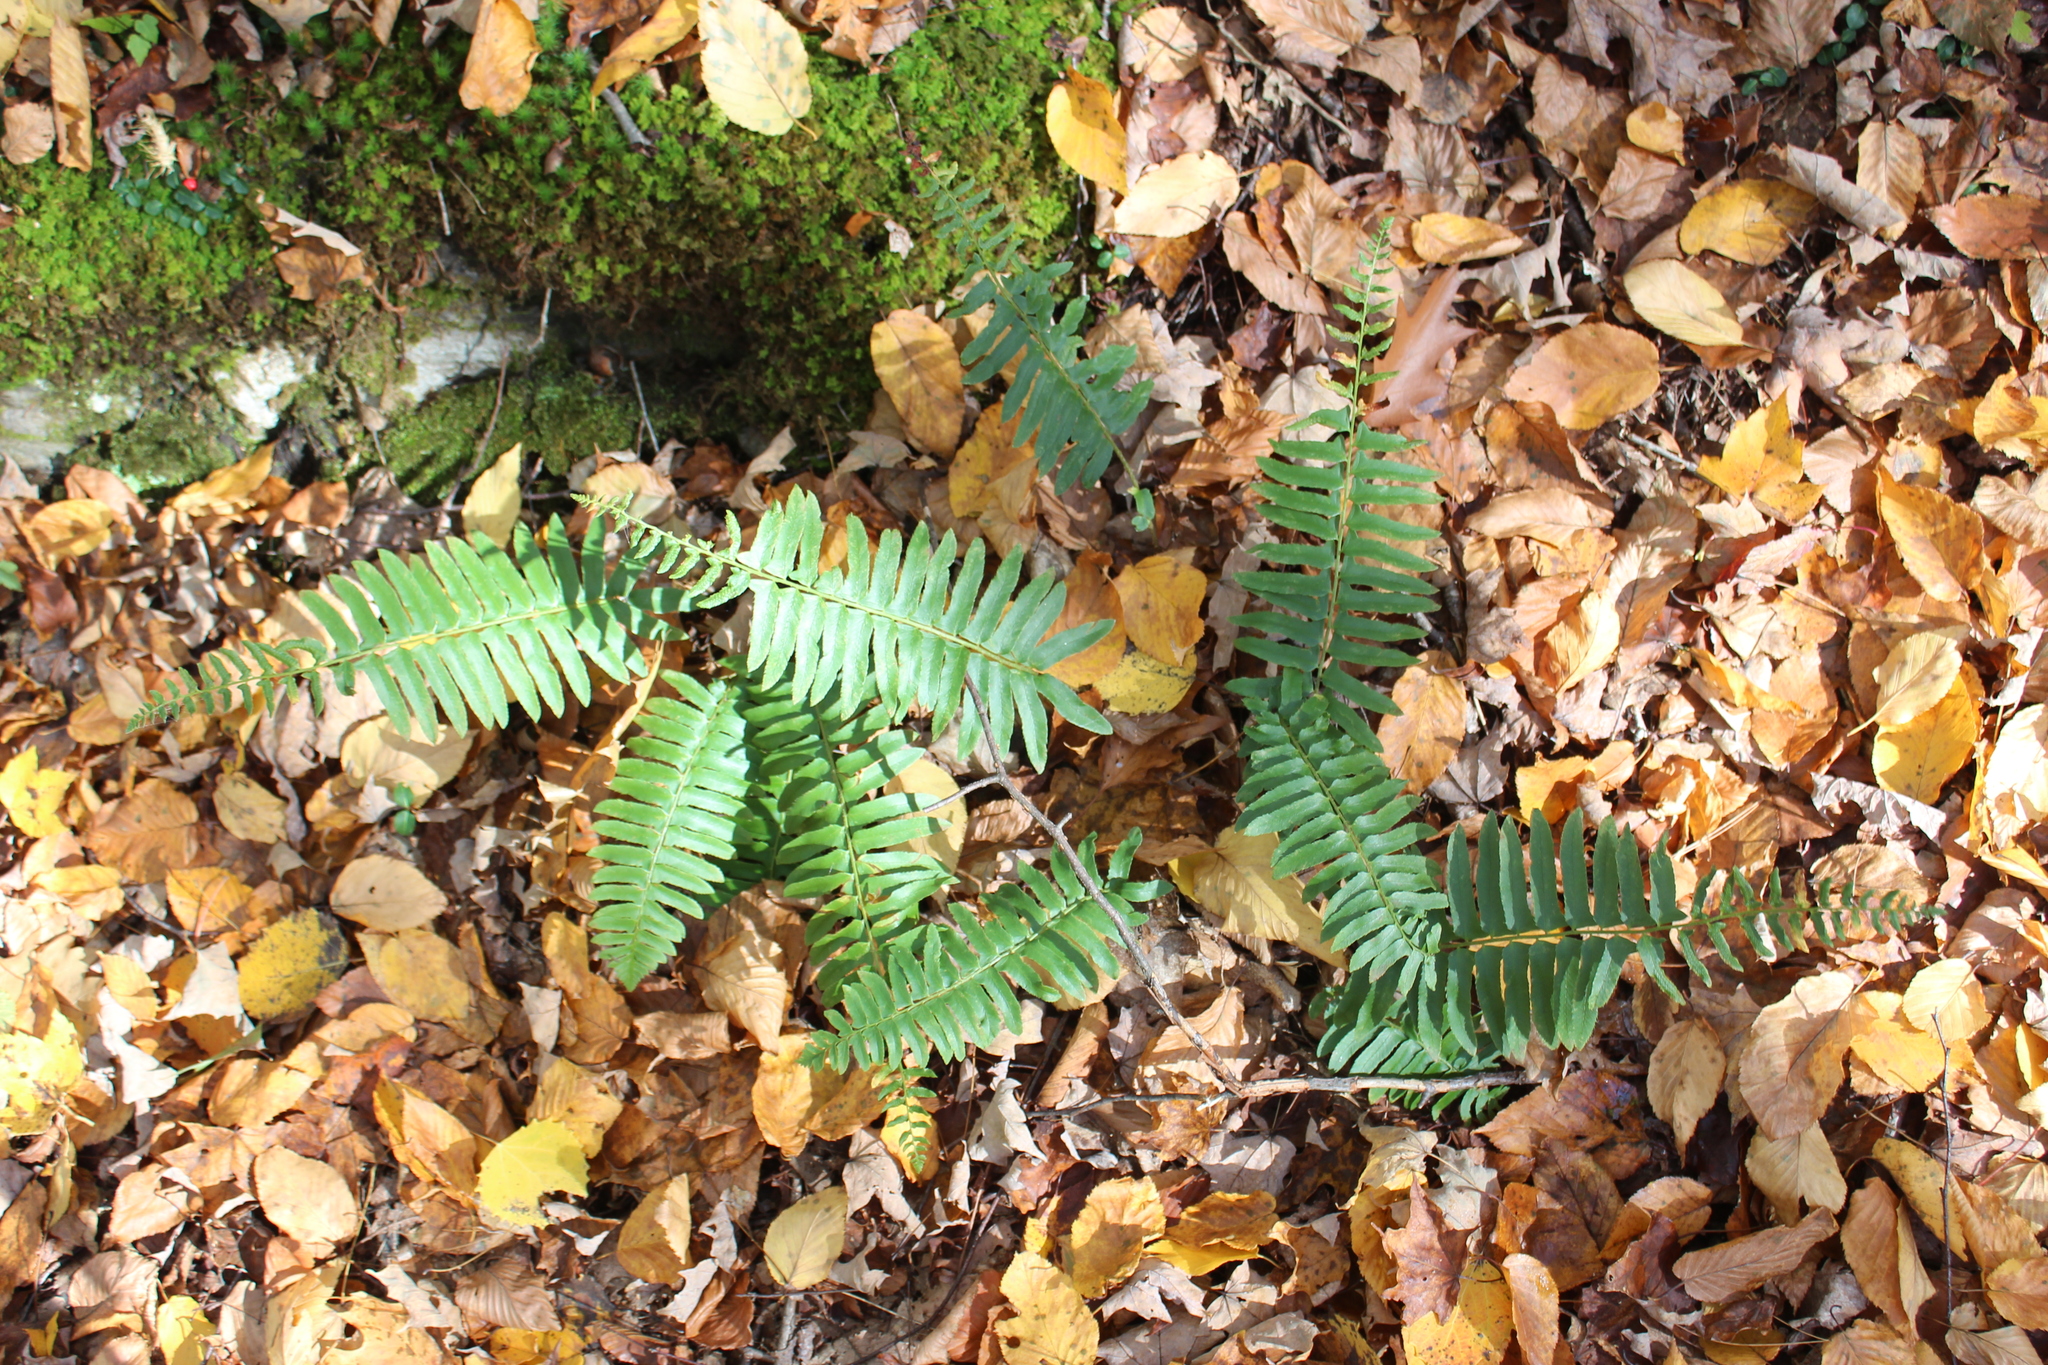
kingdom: Plantae
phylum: Tracheophyta
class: Polypodiopsida
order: Polypodiales
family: Dryopteridaceae
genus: Polystichum
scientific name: Polystichum acrostichoides
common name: Christmas fern
